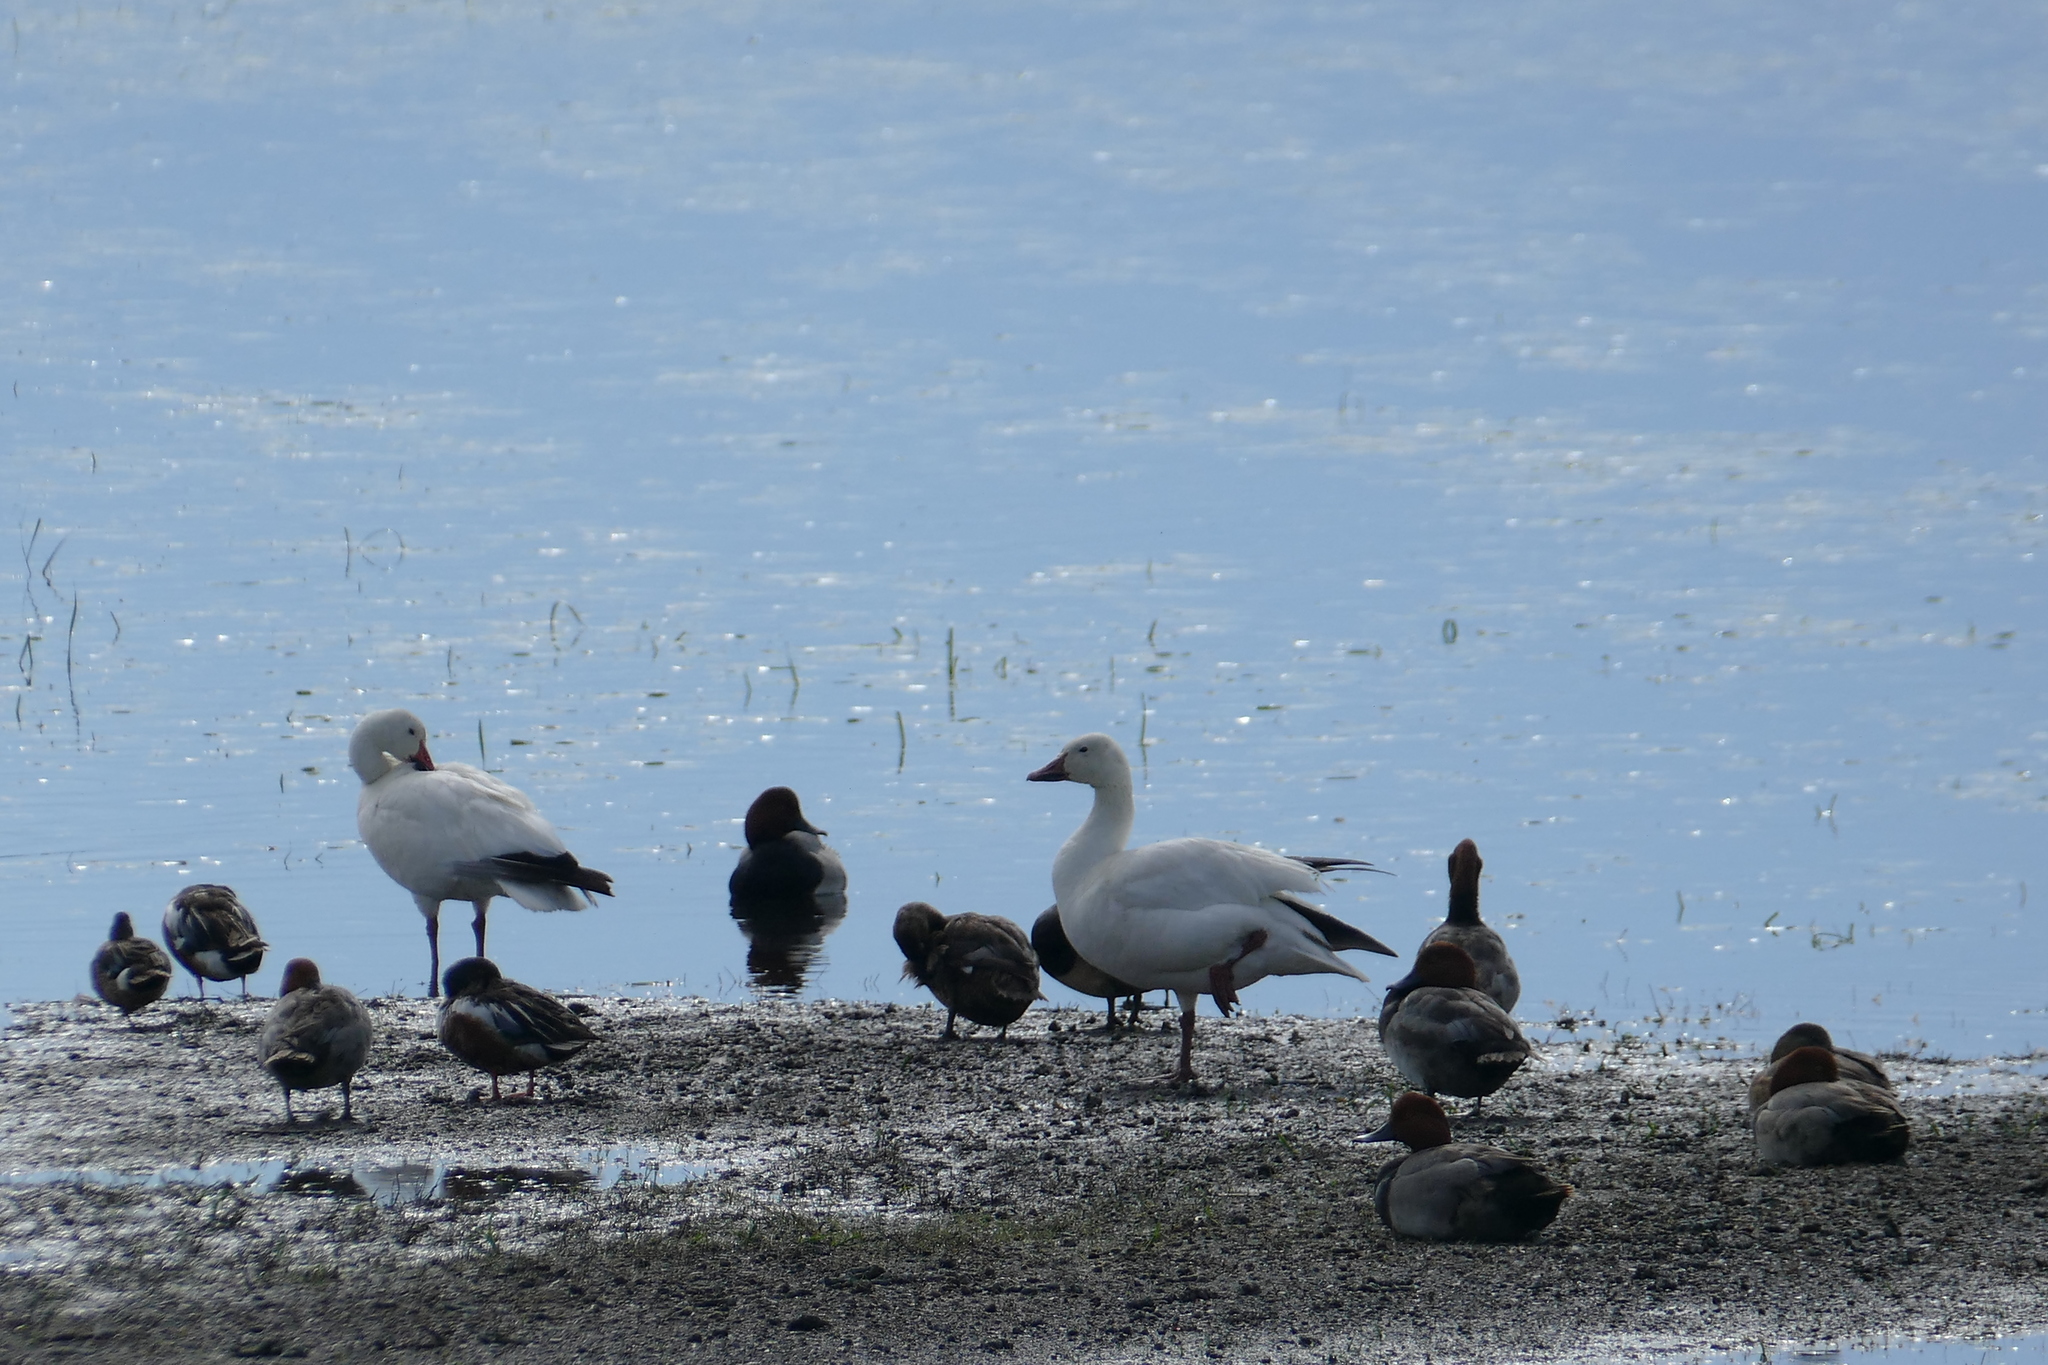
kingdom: Animalia
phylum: Chordata
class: Aves
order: Anseriformes
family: Anatidae
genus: Aythya
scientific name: Aythya americana
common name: Redhead
